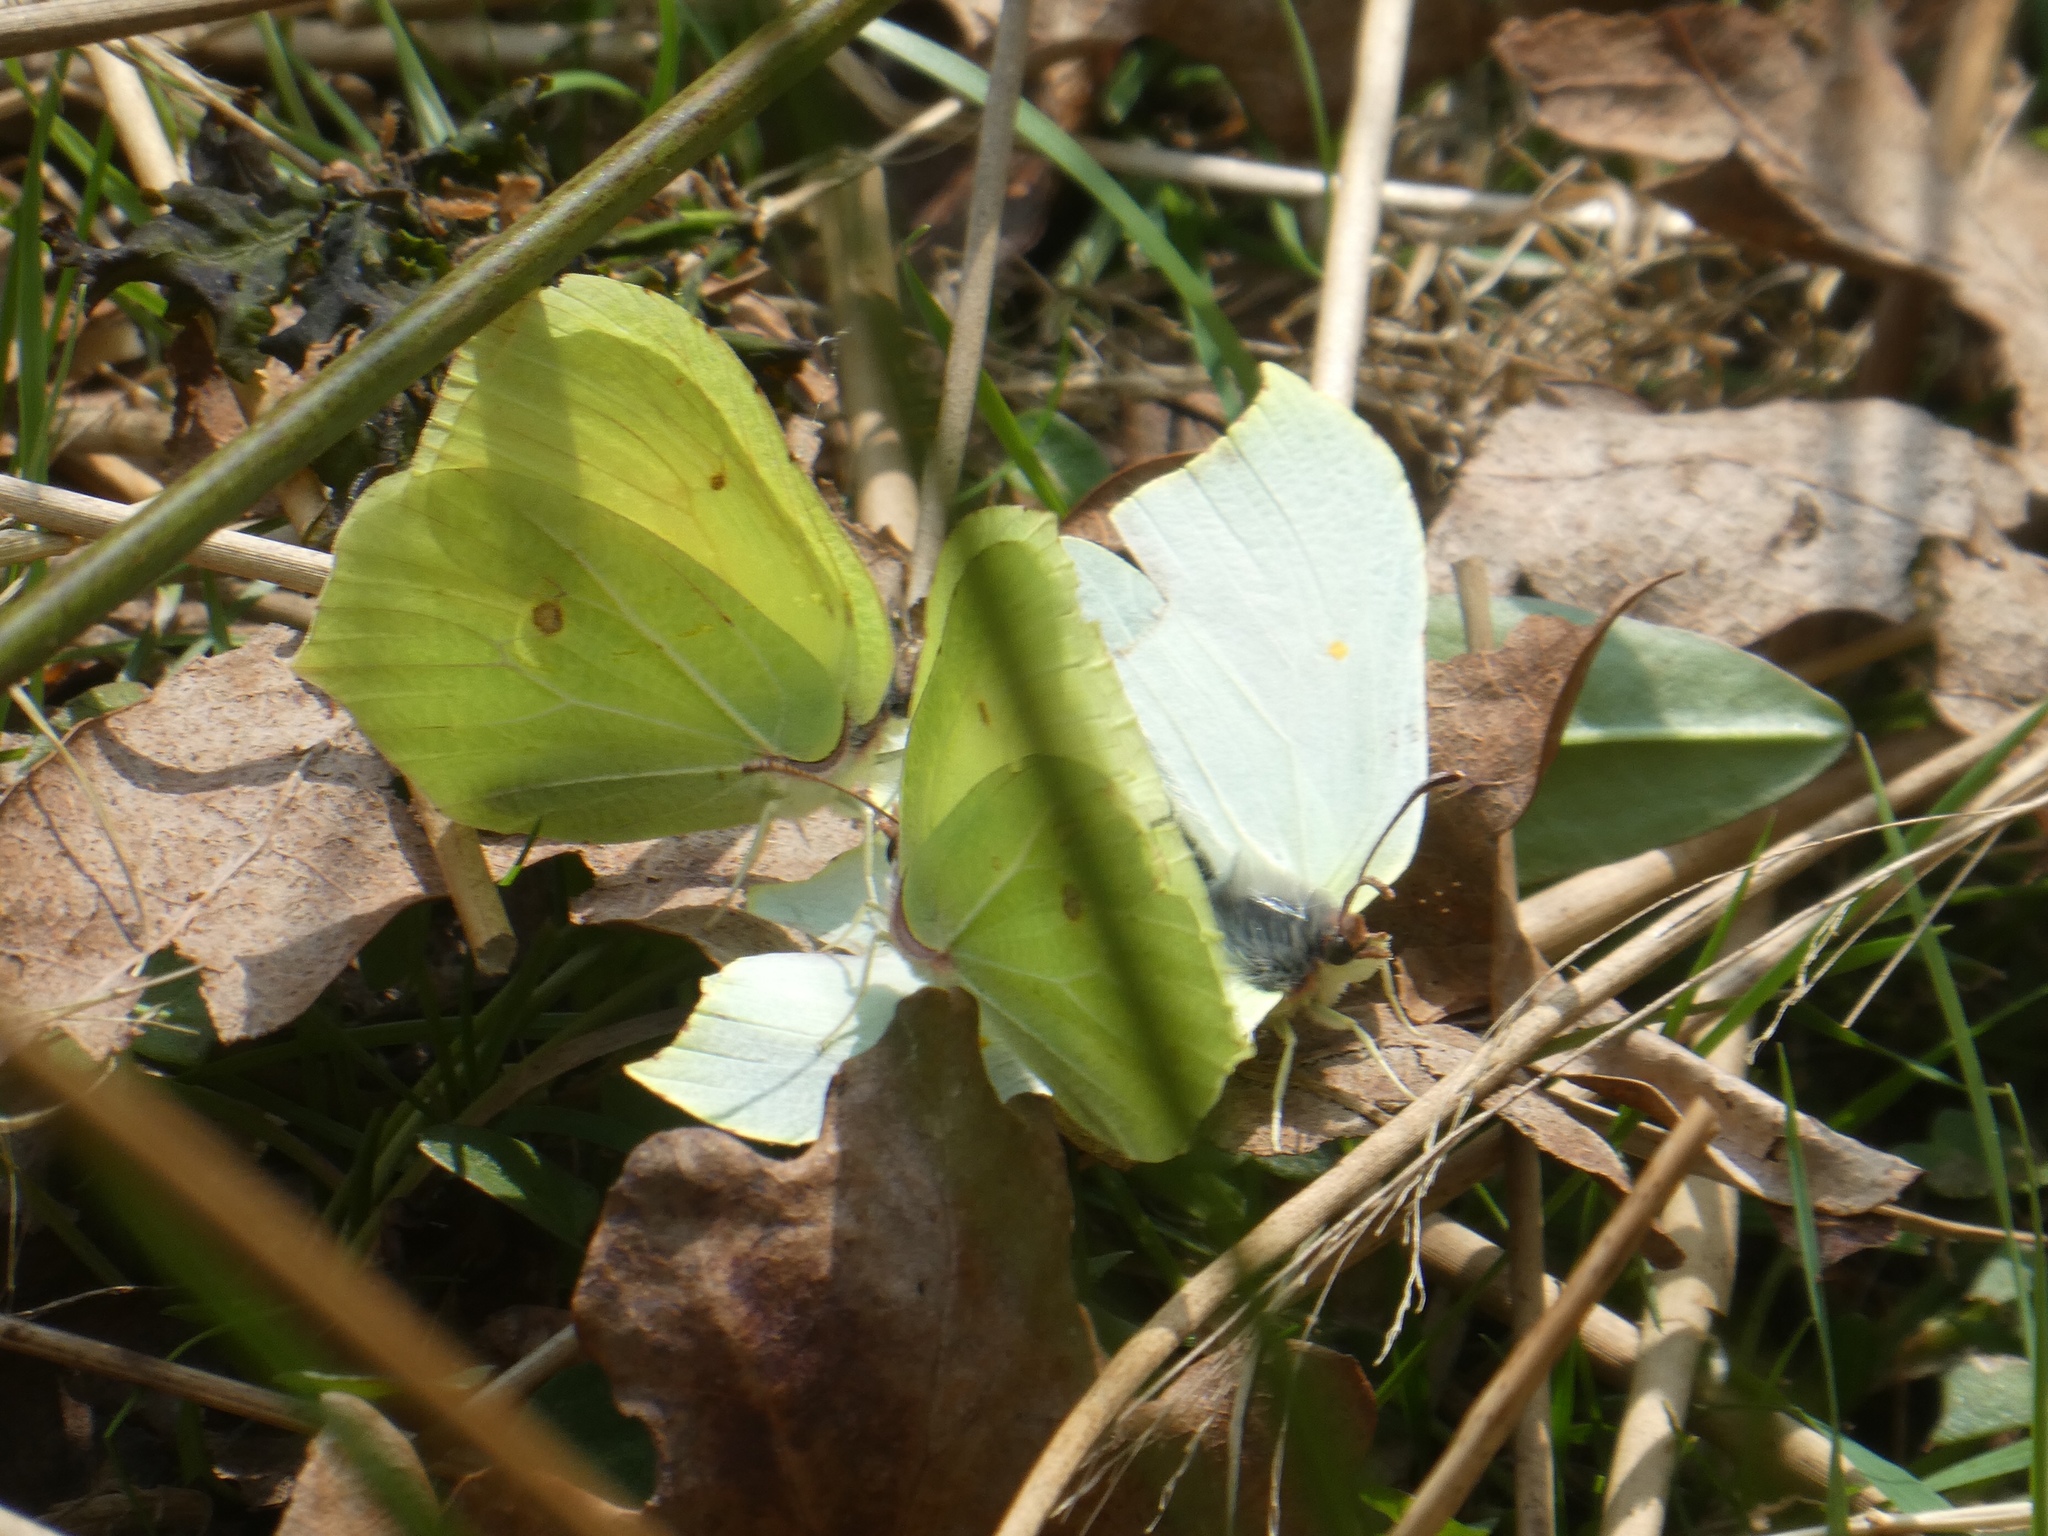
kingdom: Animalia
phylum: Arthropoda
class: Insecta
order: Lepidoptera
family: Pieridae
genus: Gonepteryx
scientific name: Gonepteryx rhamni
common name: Brimstone
